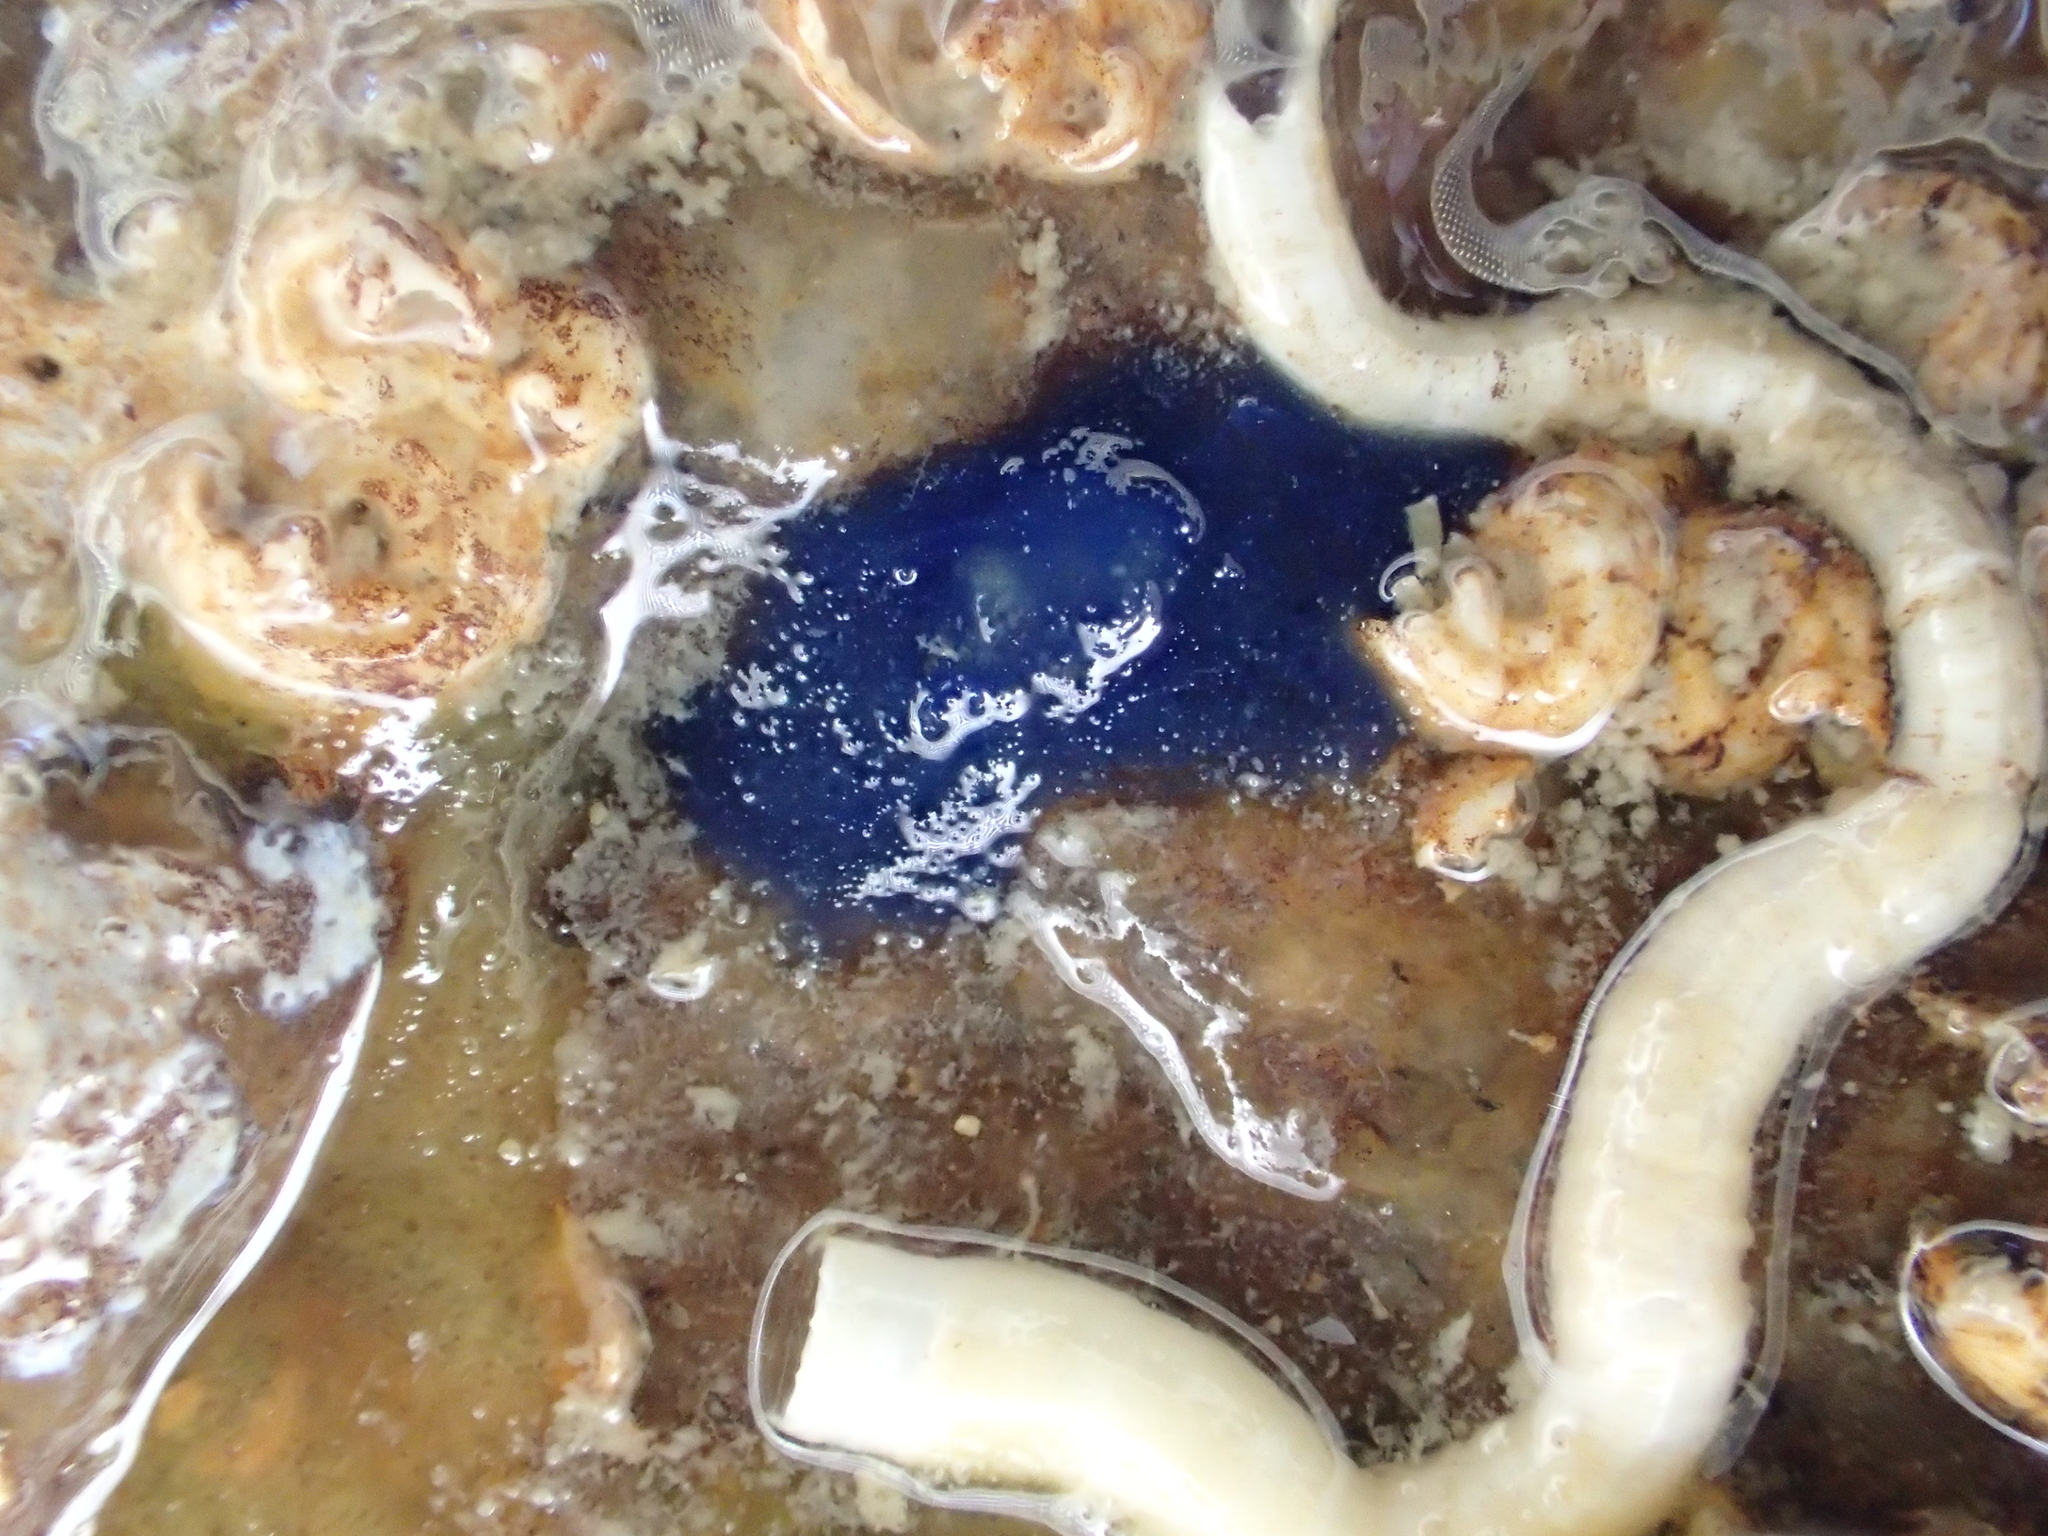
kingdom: Animalia
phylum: Porifera
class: Demospongiae
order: Suberitida
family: Suberitidae
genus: Terpios
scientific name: Terpios gelatinosus
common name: Blue encrusting sponge
